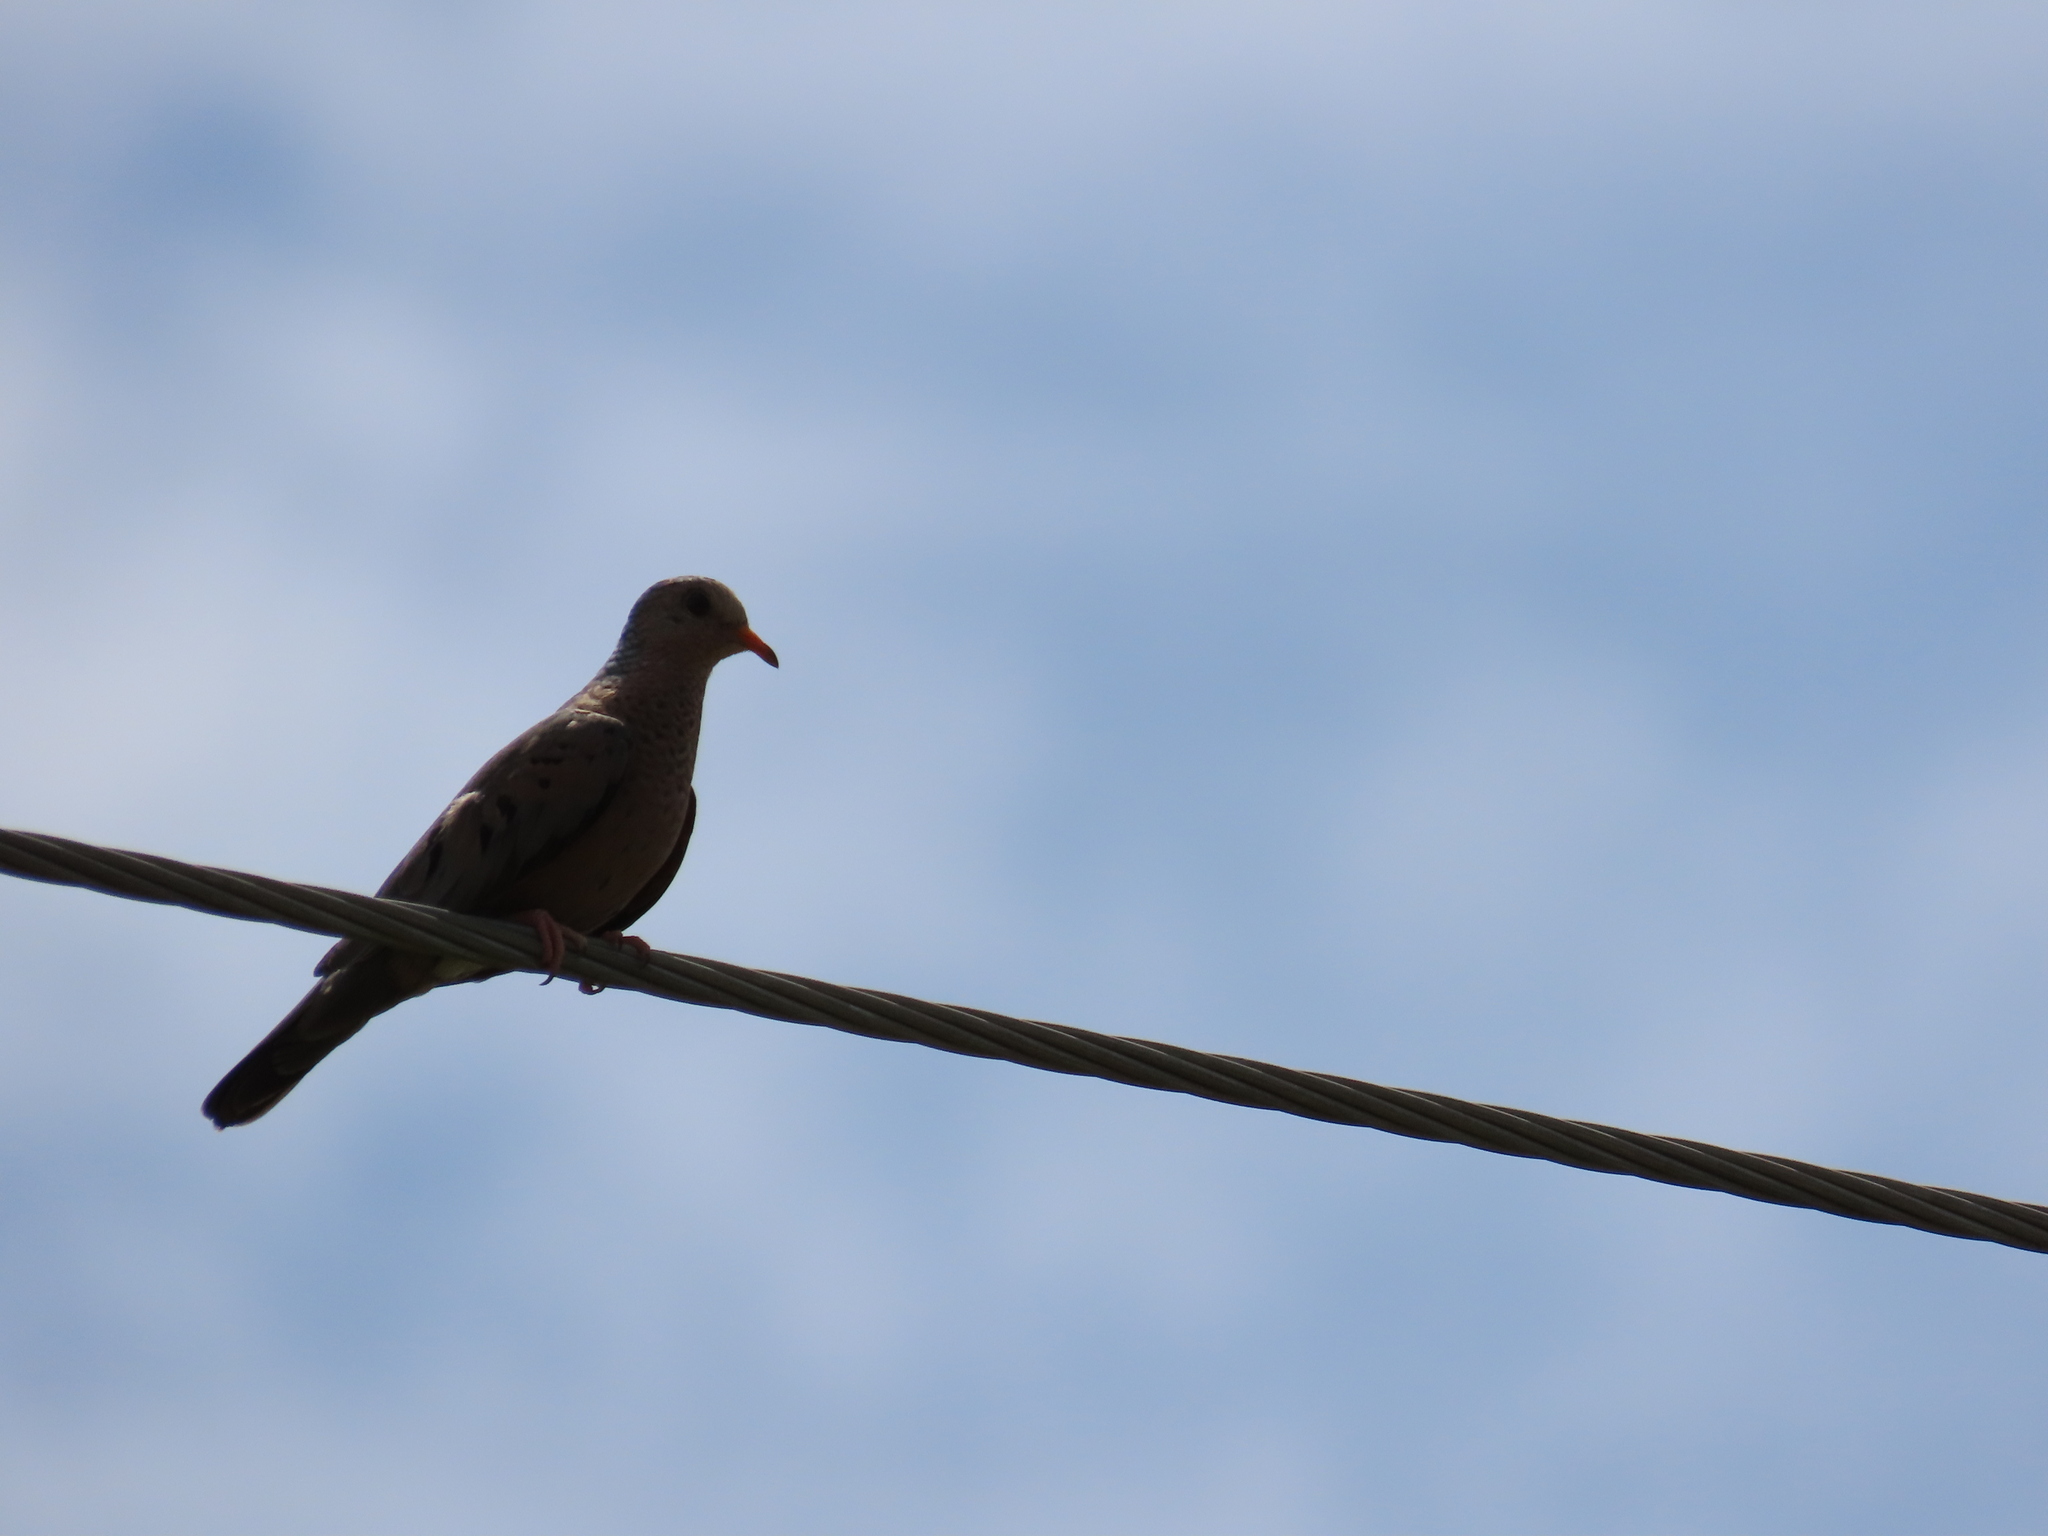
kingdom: Animalia
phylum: Chordata
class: Aves
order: Columbiformes
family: Columbidae
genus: Columbina
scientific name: Columbina passerina
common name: Common ground-dove
